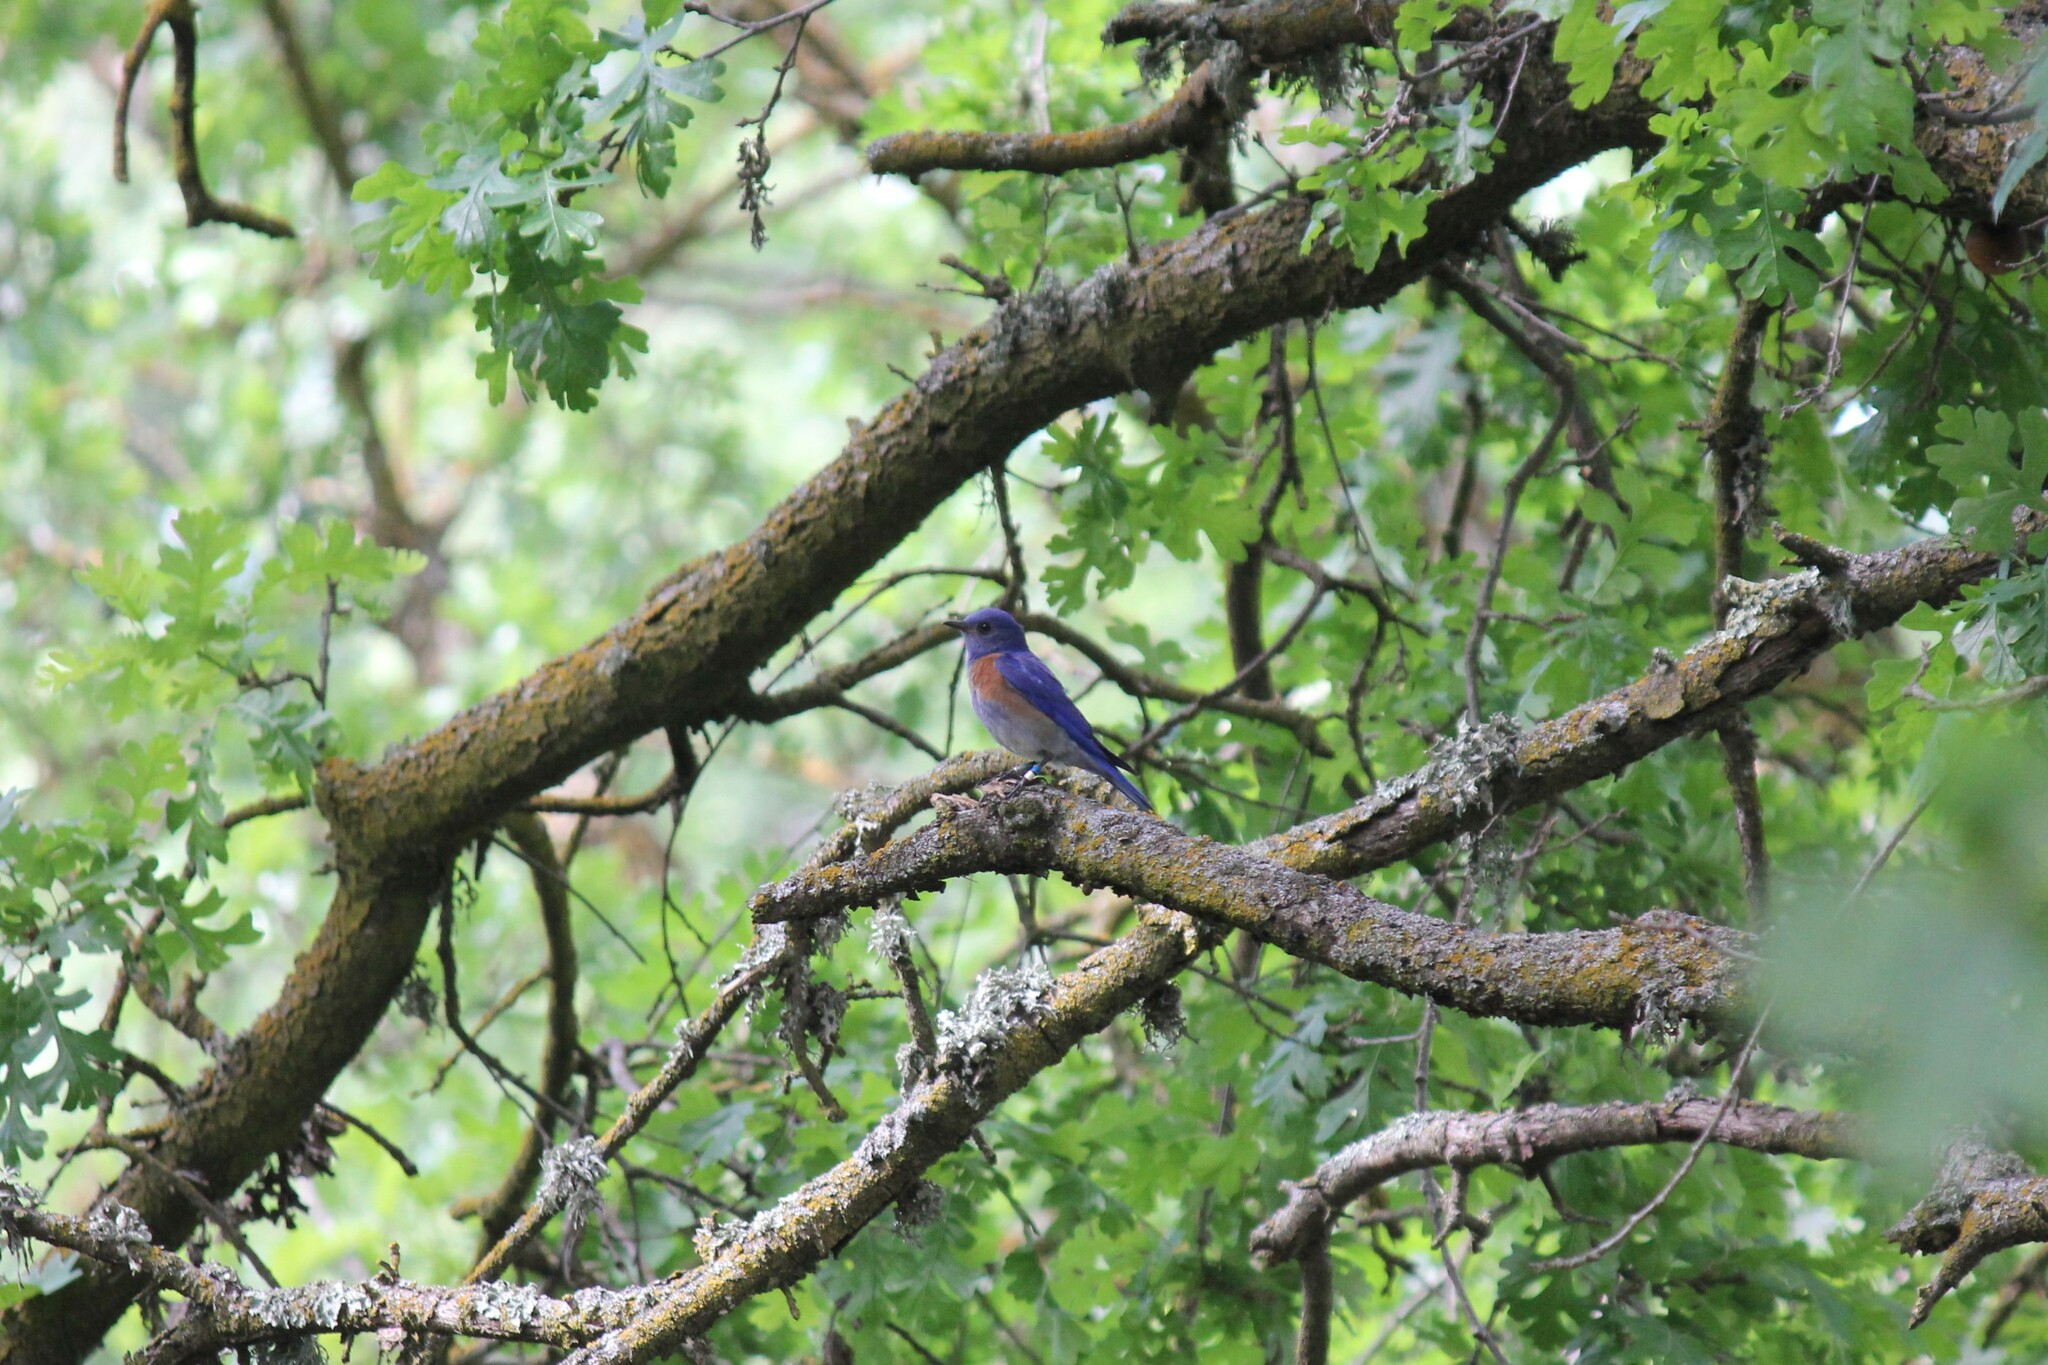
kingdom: Animalia
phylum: Chordata
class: Aves
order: Passeriformes
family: Turdidae
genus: Sialia
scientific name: Sialia mexicana
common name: Western bluebird
